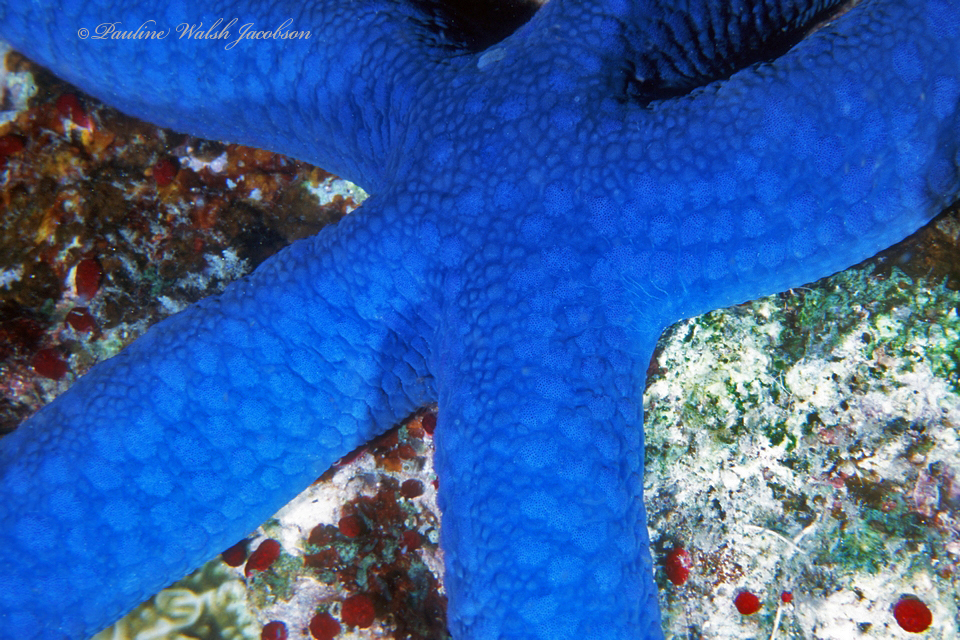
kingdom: Animalia
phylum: Echinodermata
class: Asteroidea
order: Valvatida
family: Ophidiasteridae
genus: Linckia
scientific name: Linckia laevigata
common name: Azure sea star
